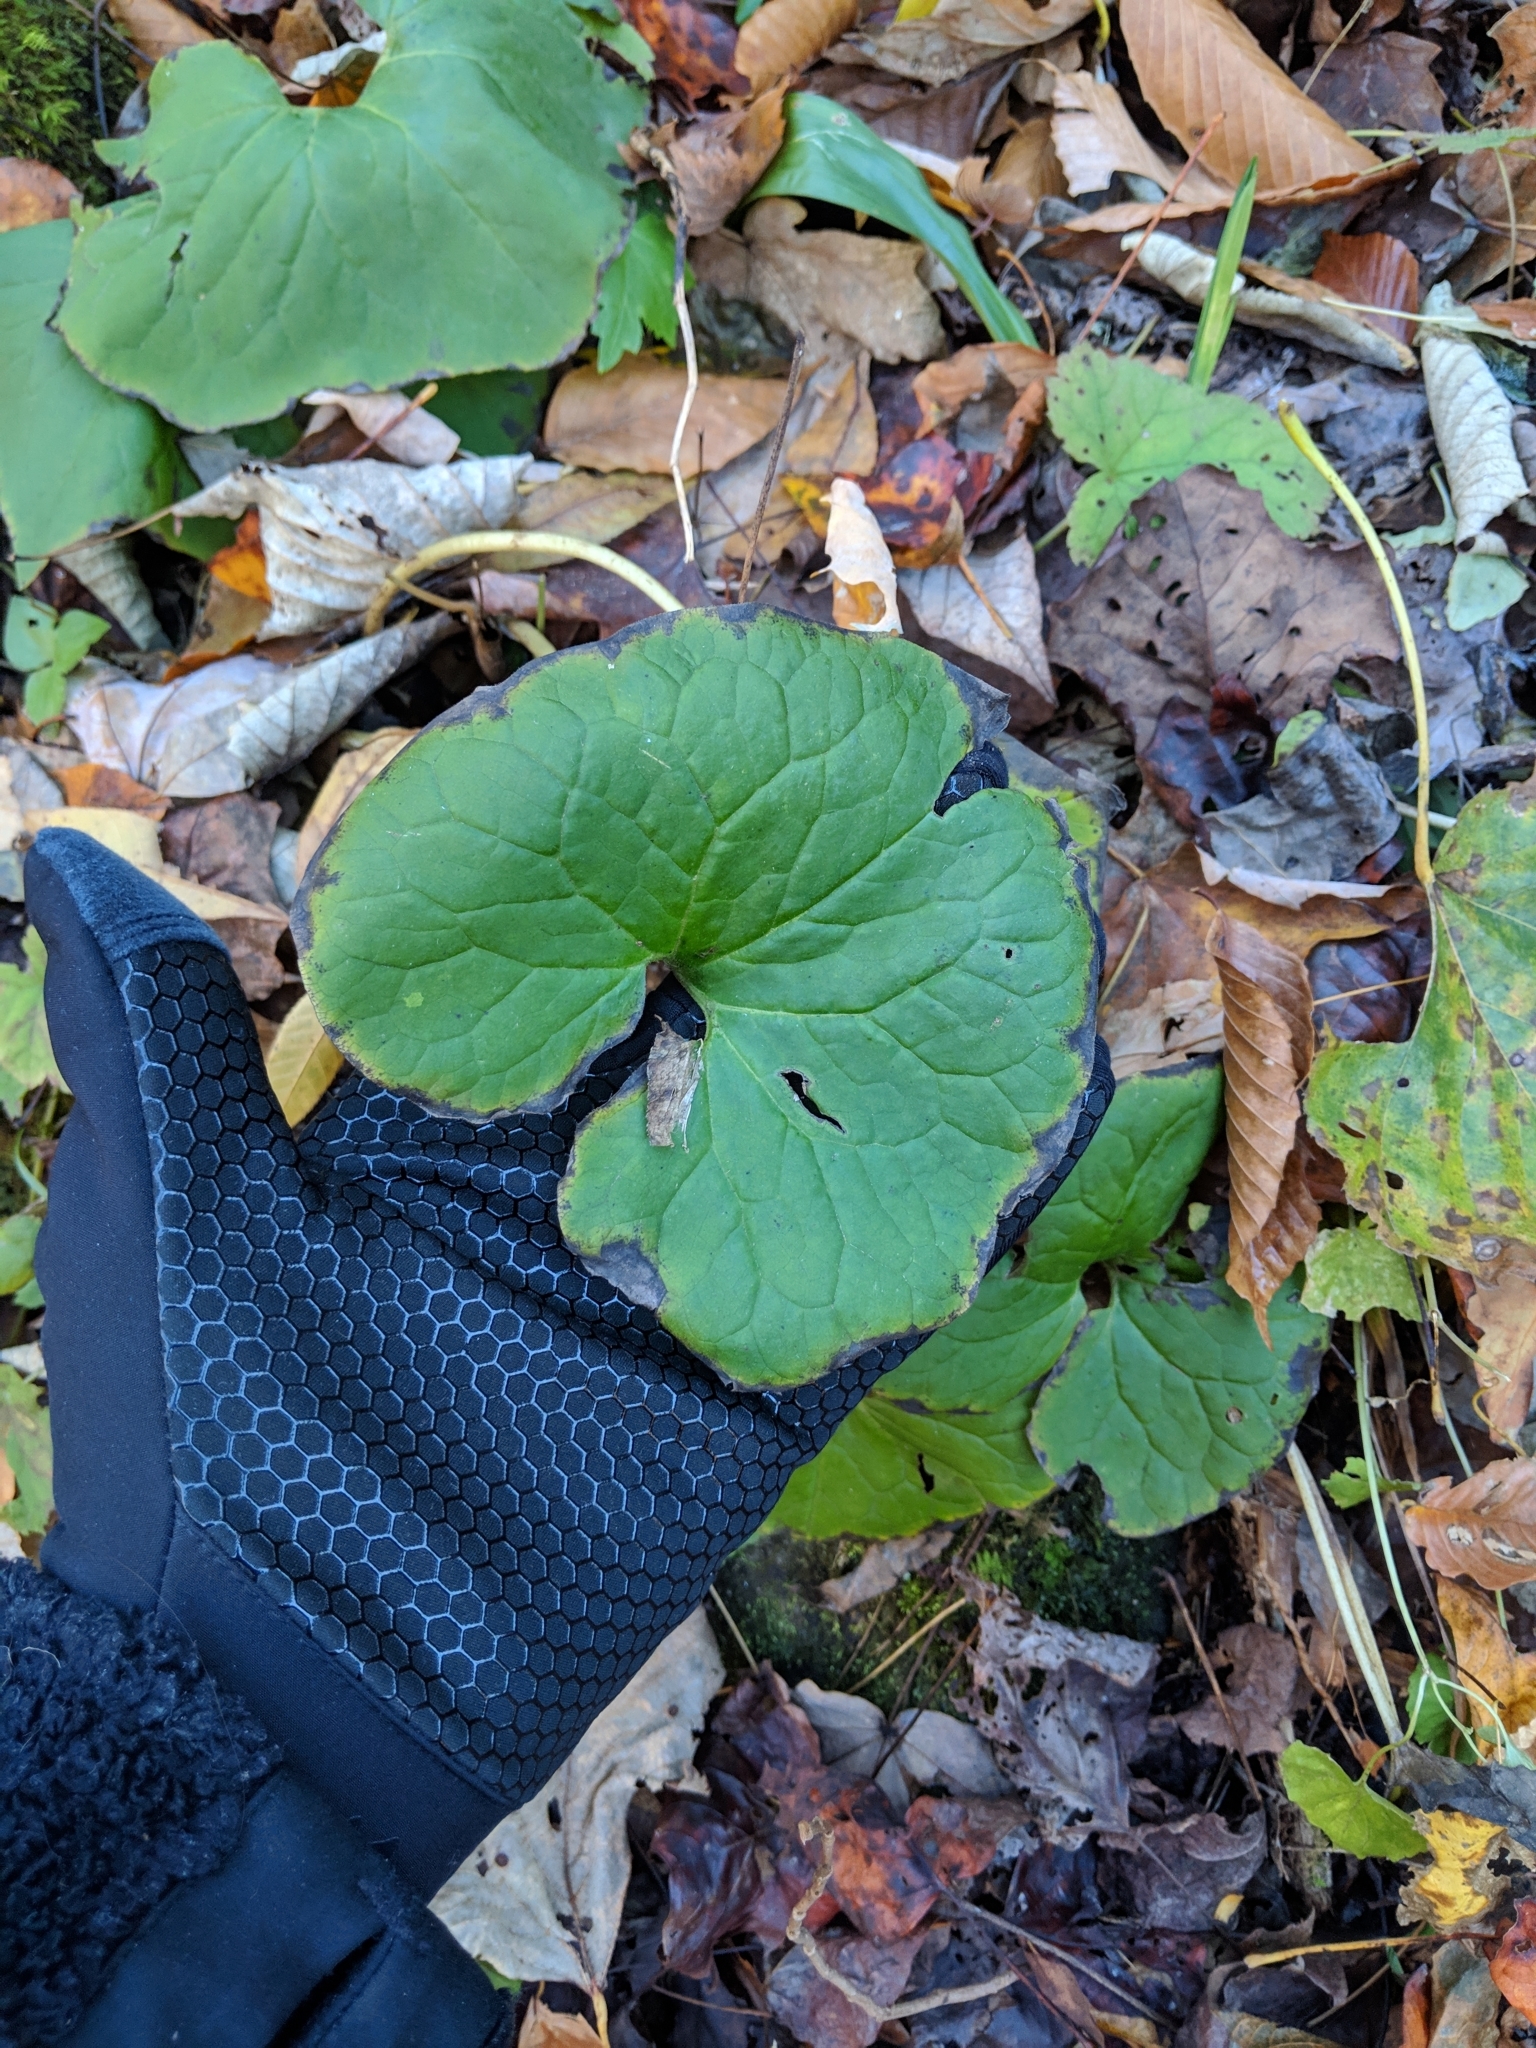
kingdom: Plantae
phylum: Tracheophyta
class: Magnoliopsida
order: Piperales
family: Aristolochiaceae
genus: Asarum
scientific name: Asarum canadense
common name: Wild ginger
